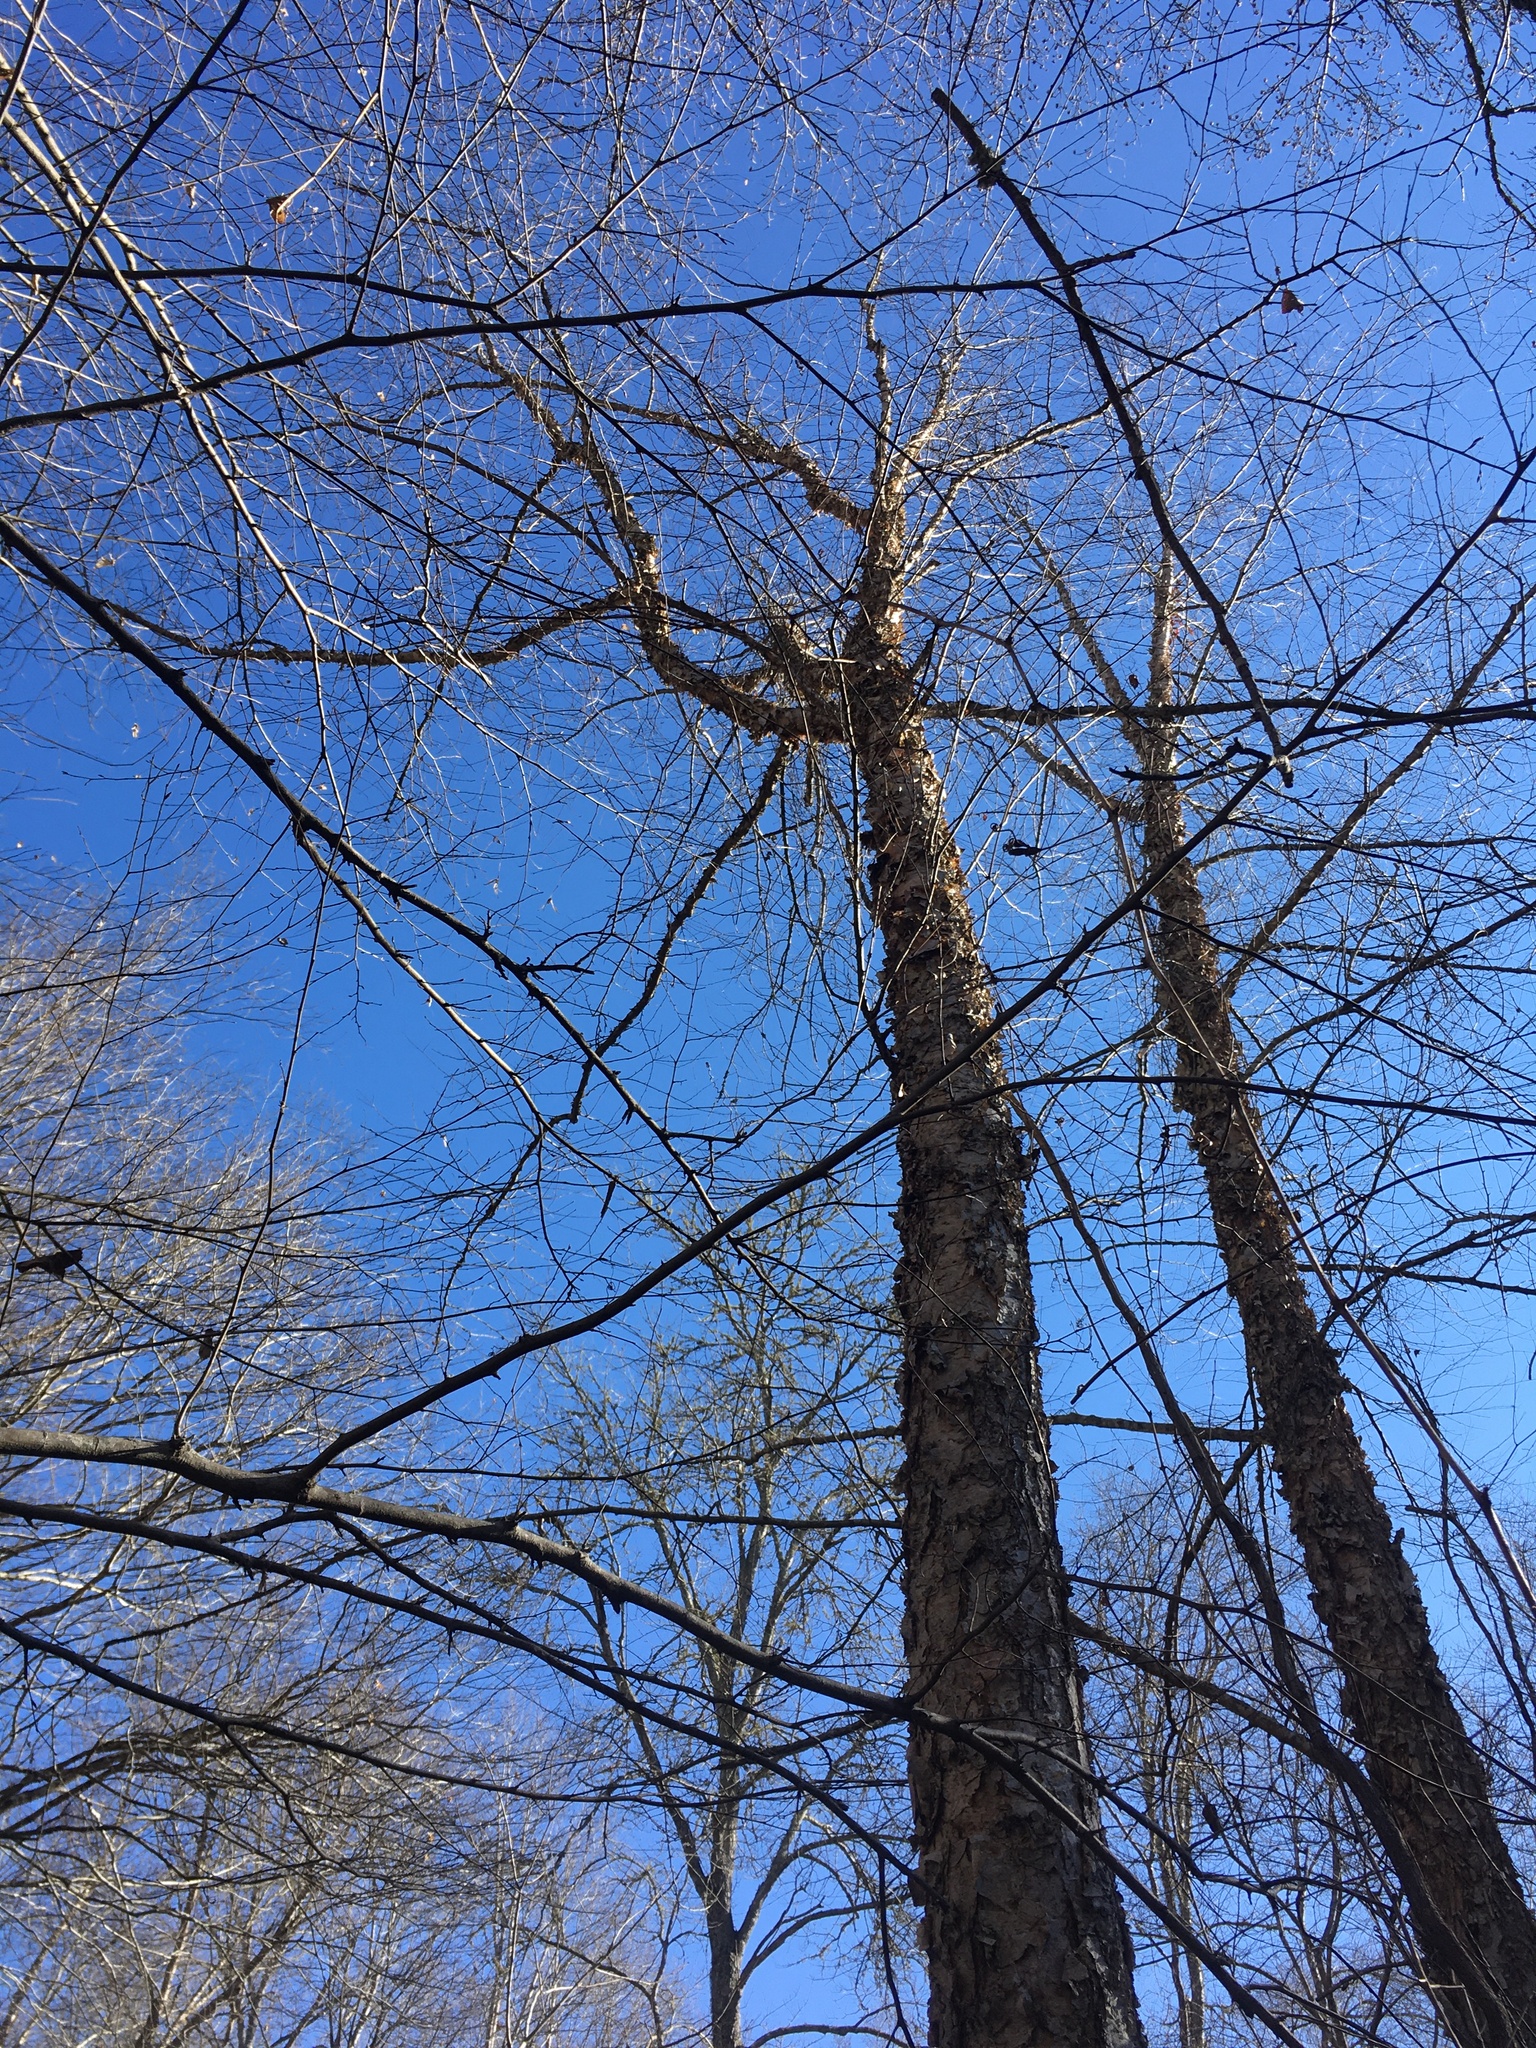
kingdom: Plantae
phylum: Tracheophyta
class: Magnoliopsida
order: Fagales
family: Betulaceae
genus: Betula
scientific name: Betula nigra
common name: Black birch
